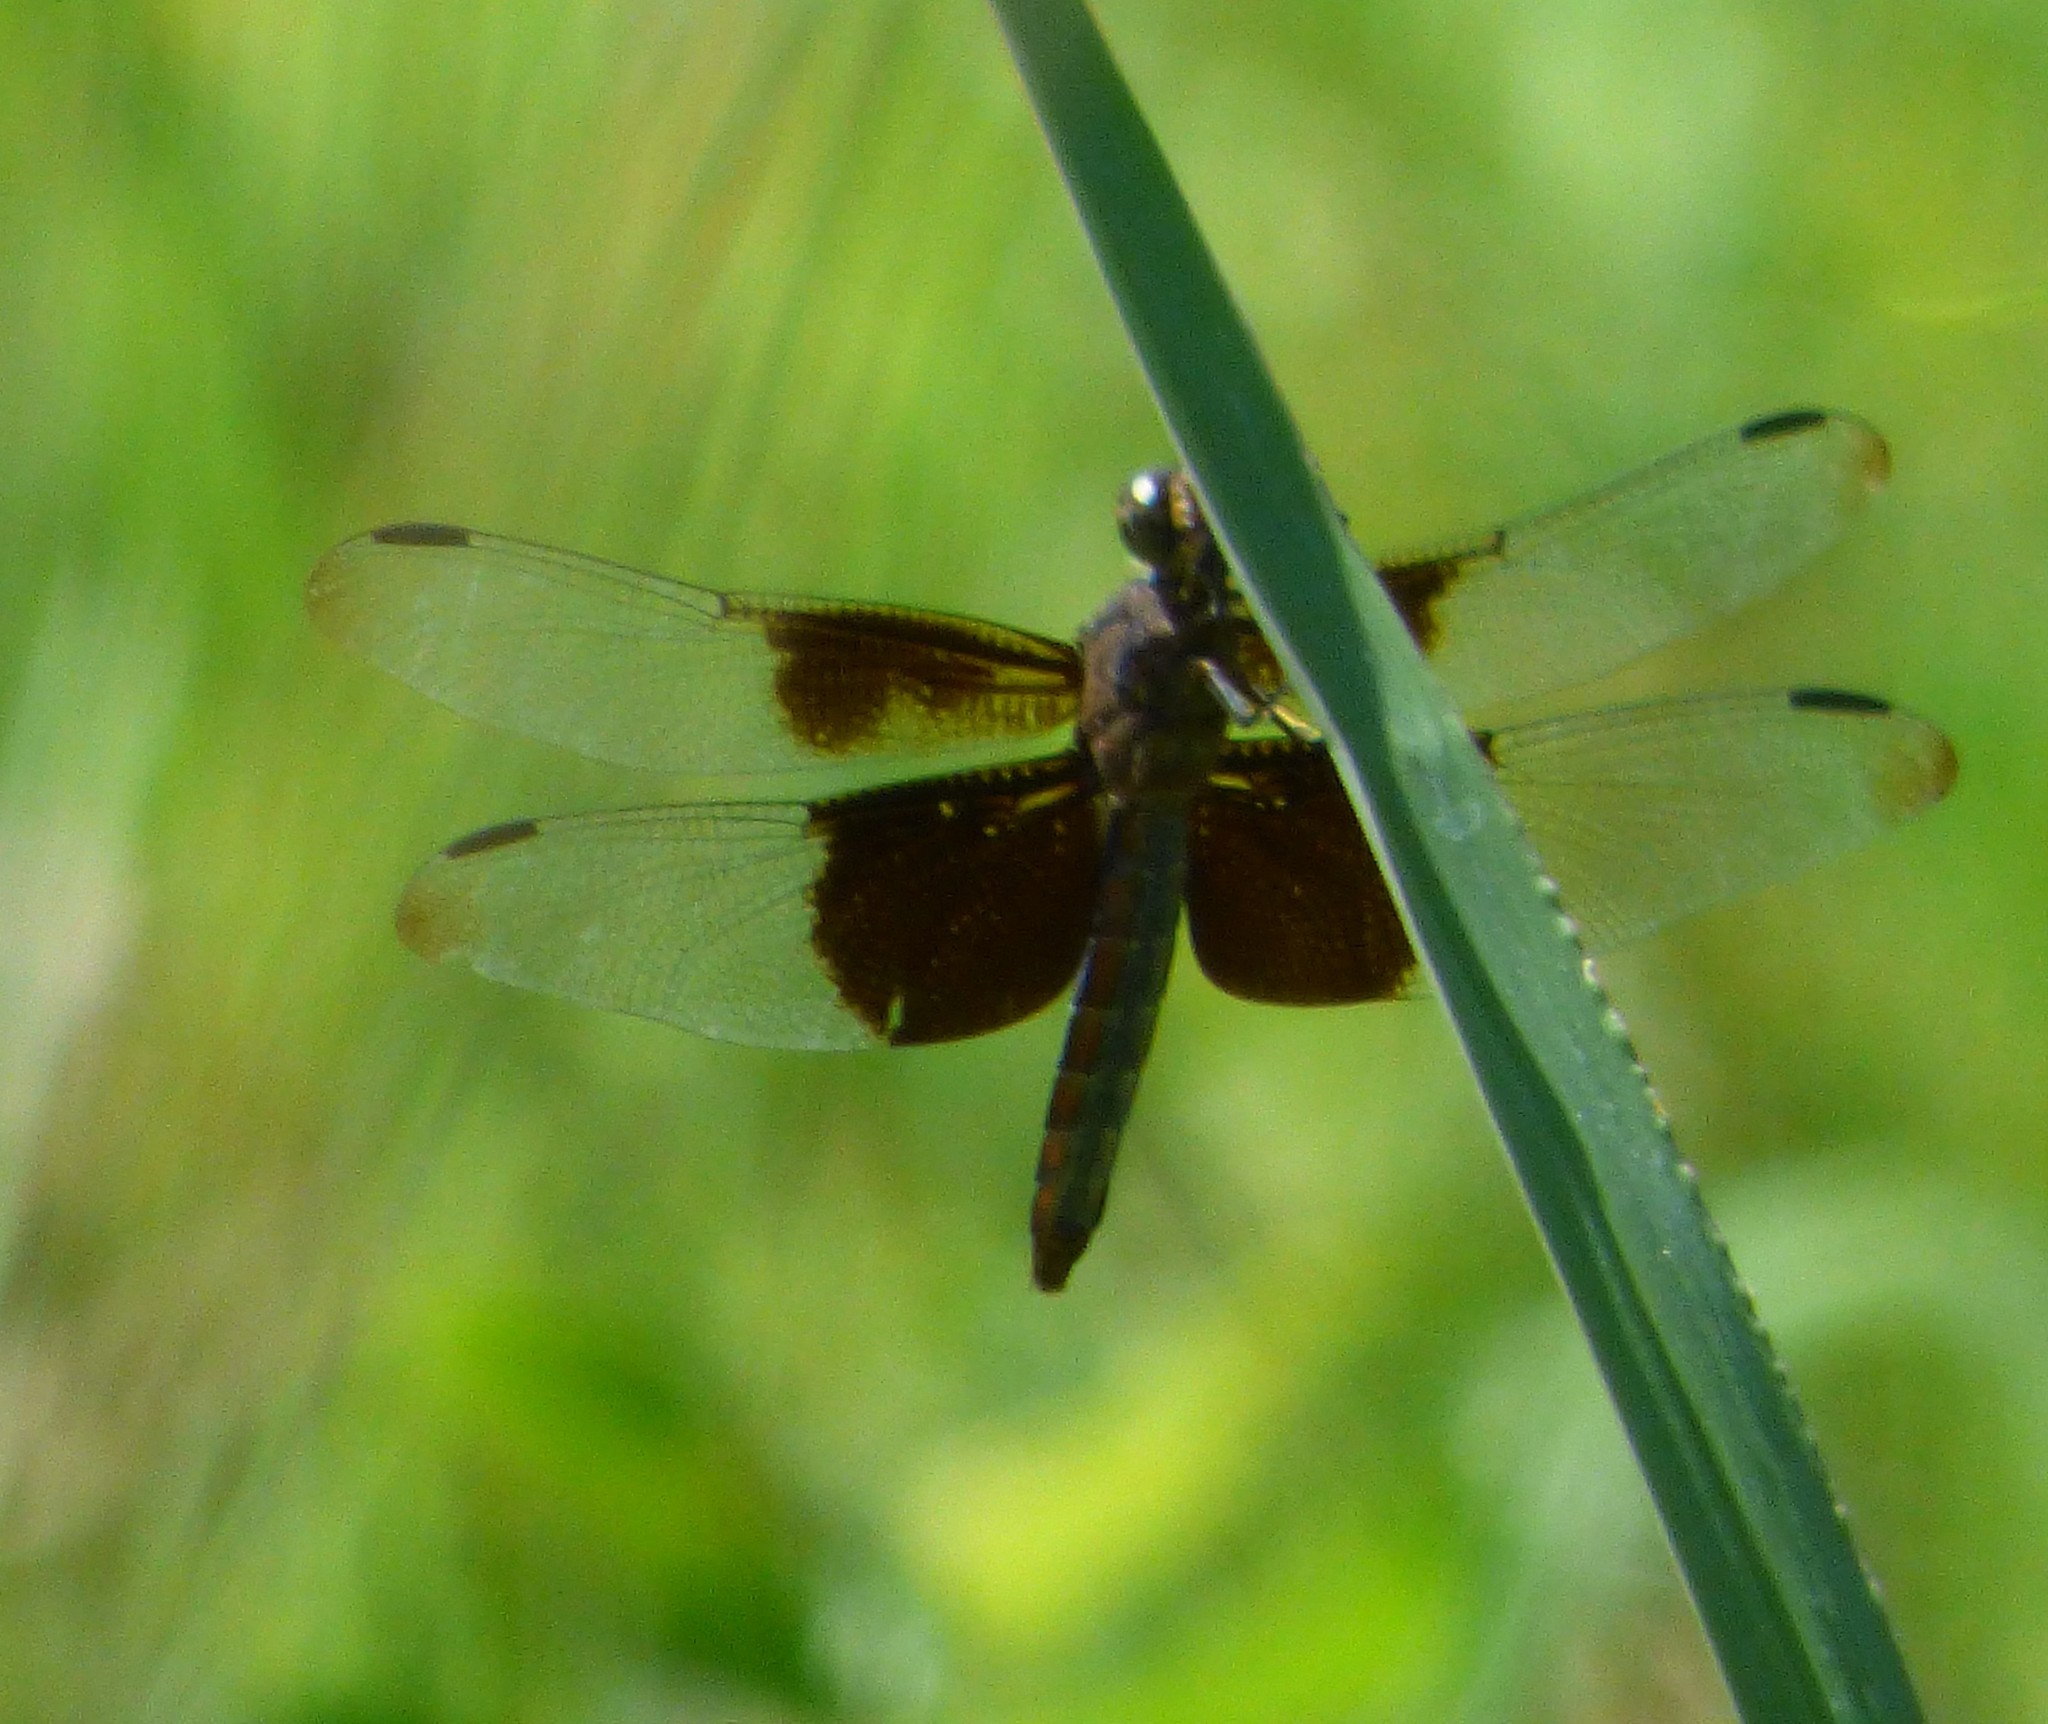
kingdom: Animalia
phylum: Arthropoda
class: Insecta
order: Odonata
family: Libellulidae
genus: Libellula
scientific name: Libellula luctuosa
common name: Widow skimmer
